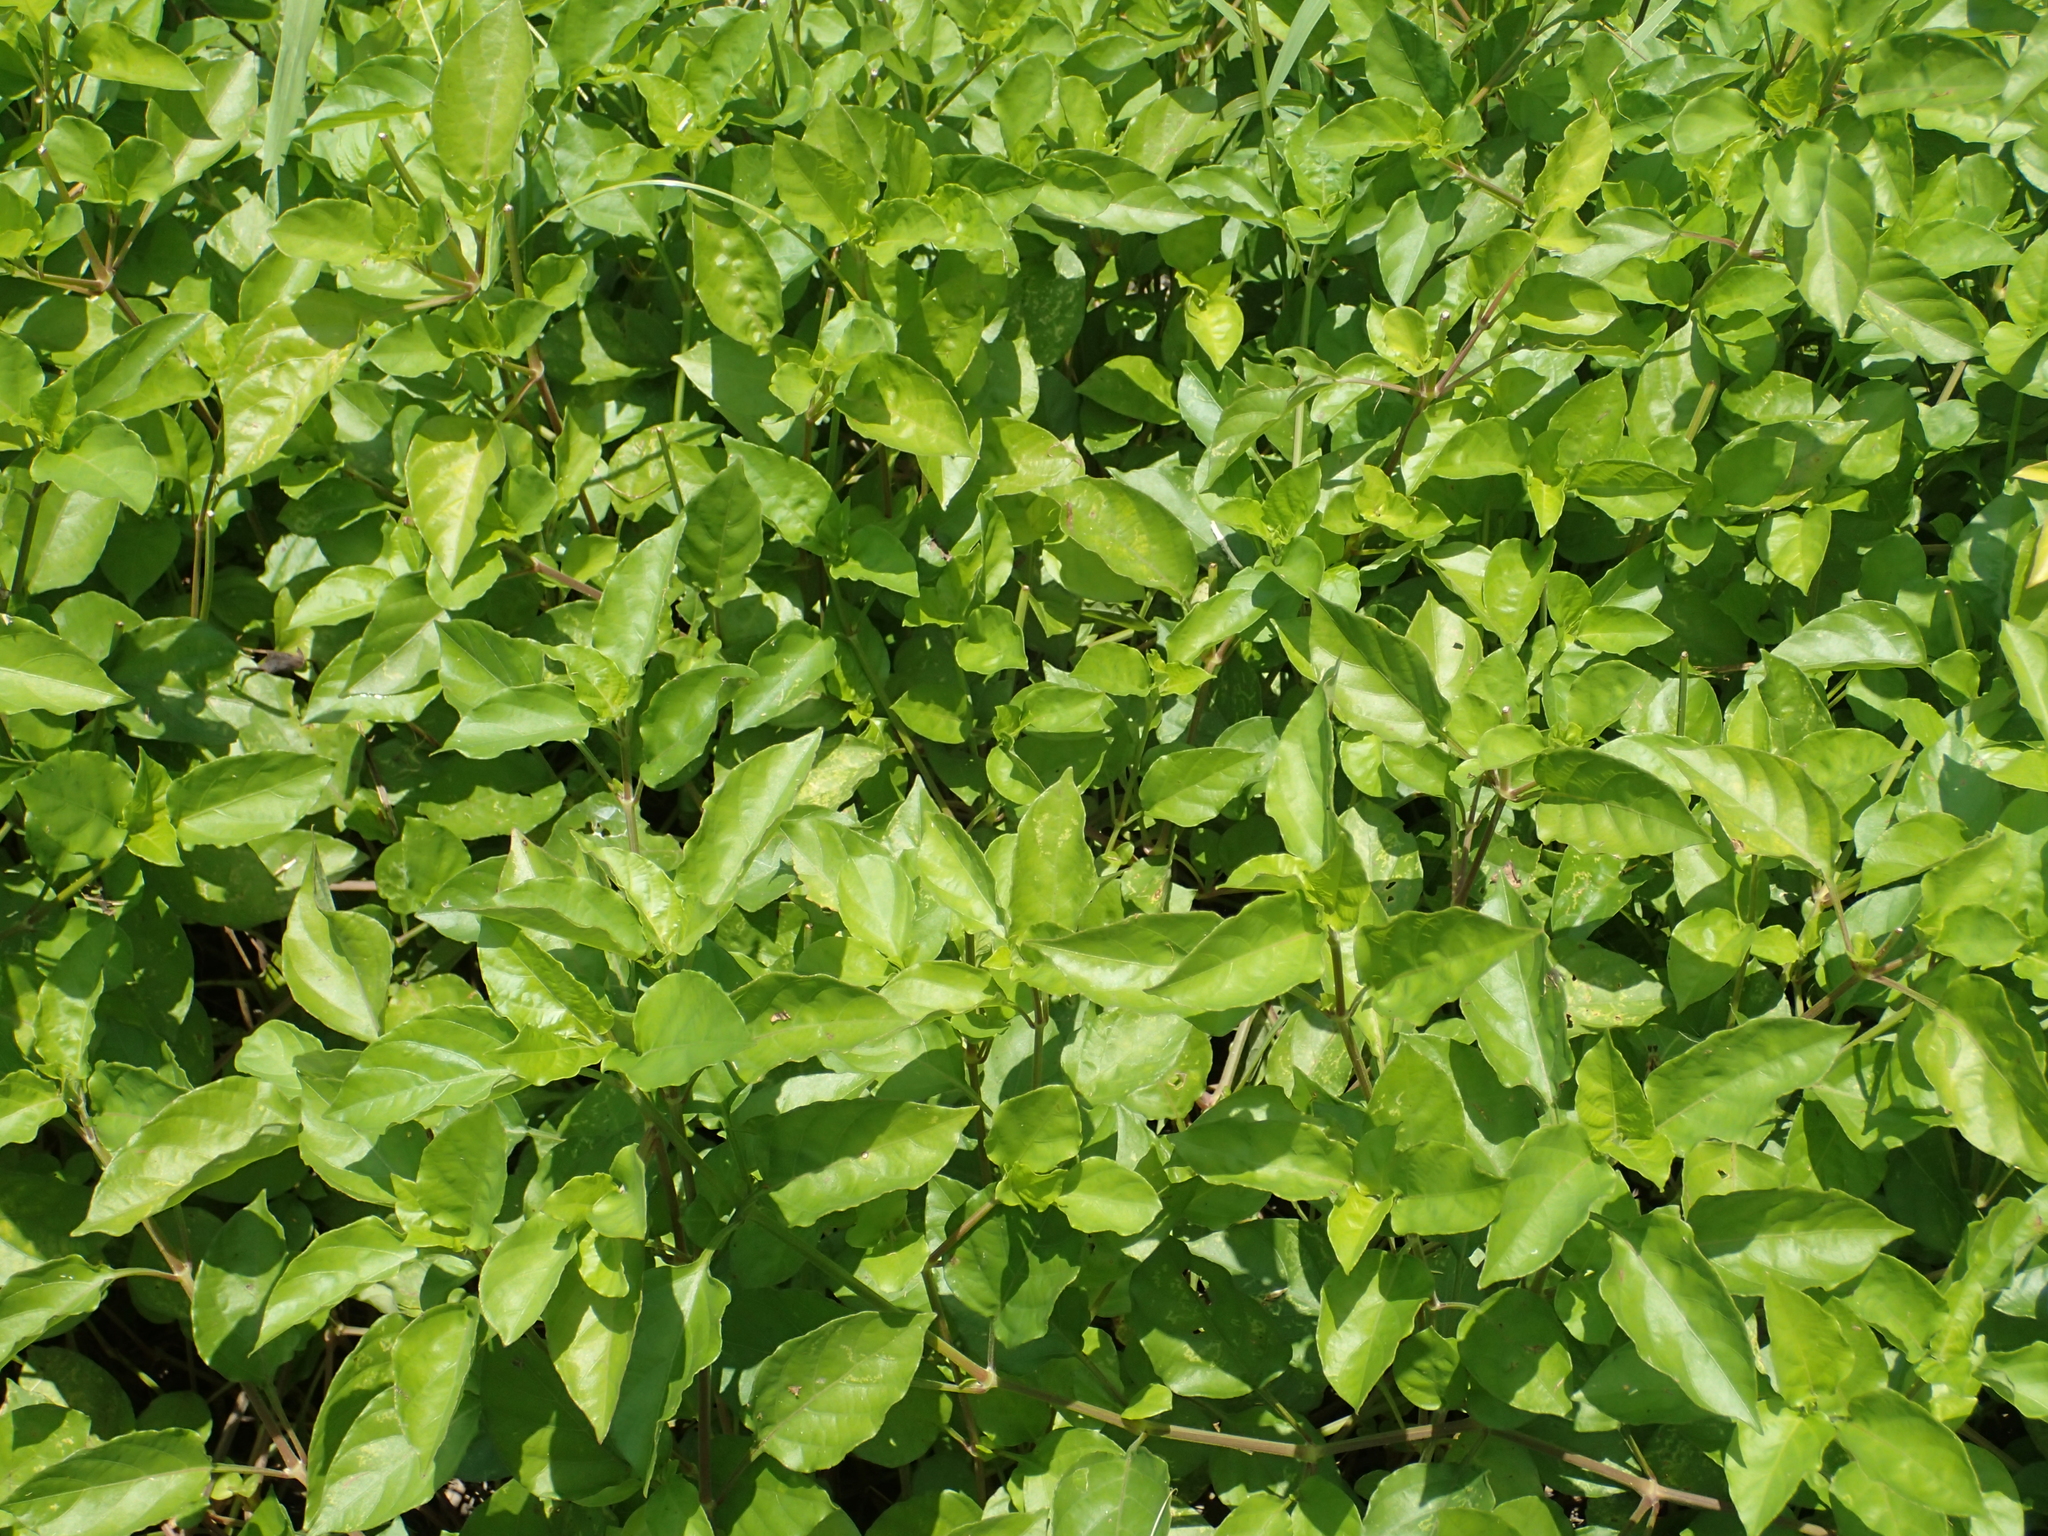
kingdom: Plantae
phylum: Tracheophyta
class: Magnoliopsida
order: Lamiales
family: Acanthaceae
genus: Asystasia
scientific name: Asystasia gangetica
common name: Chinese violet
